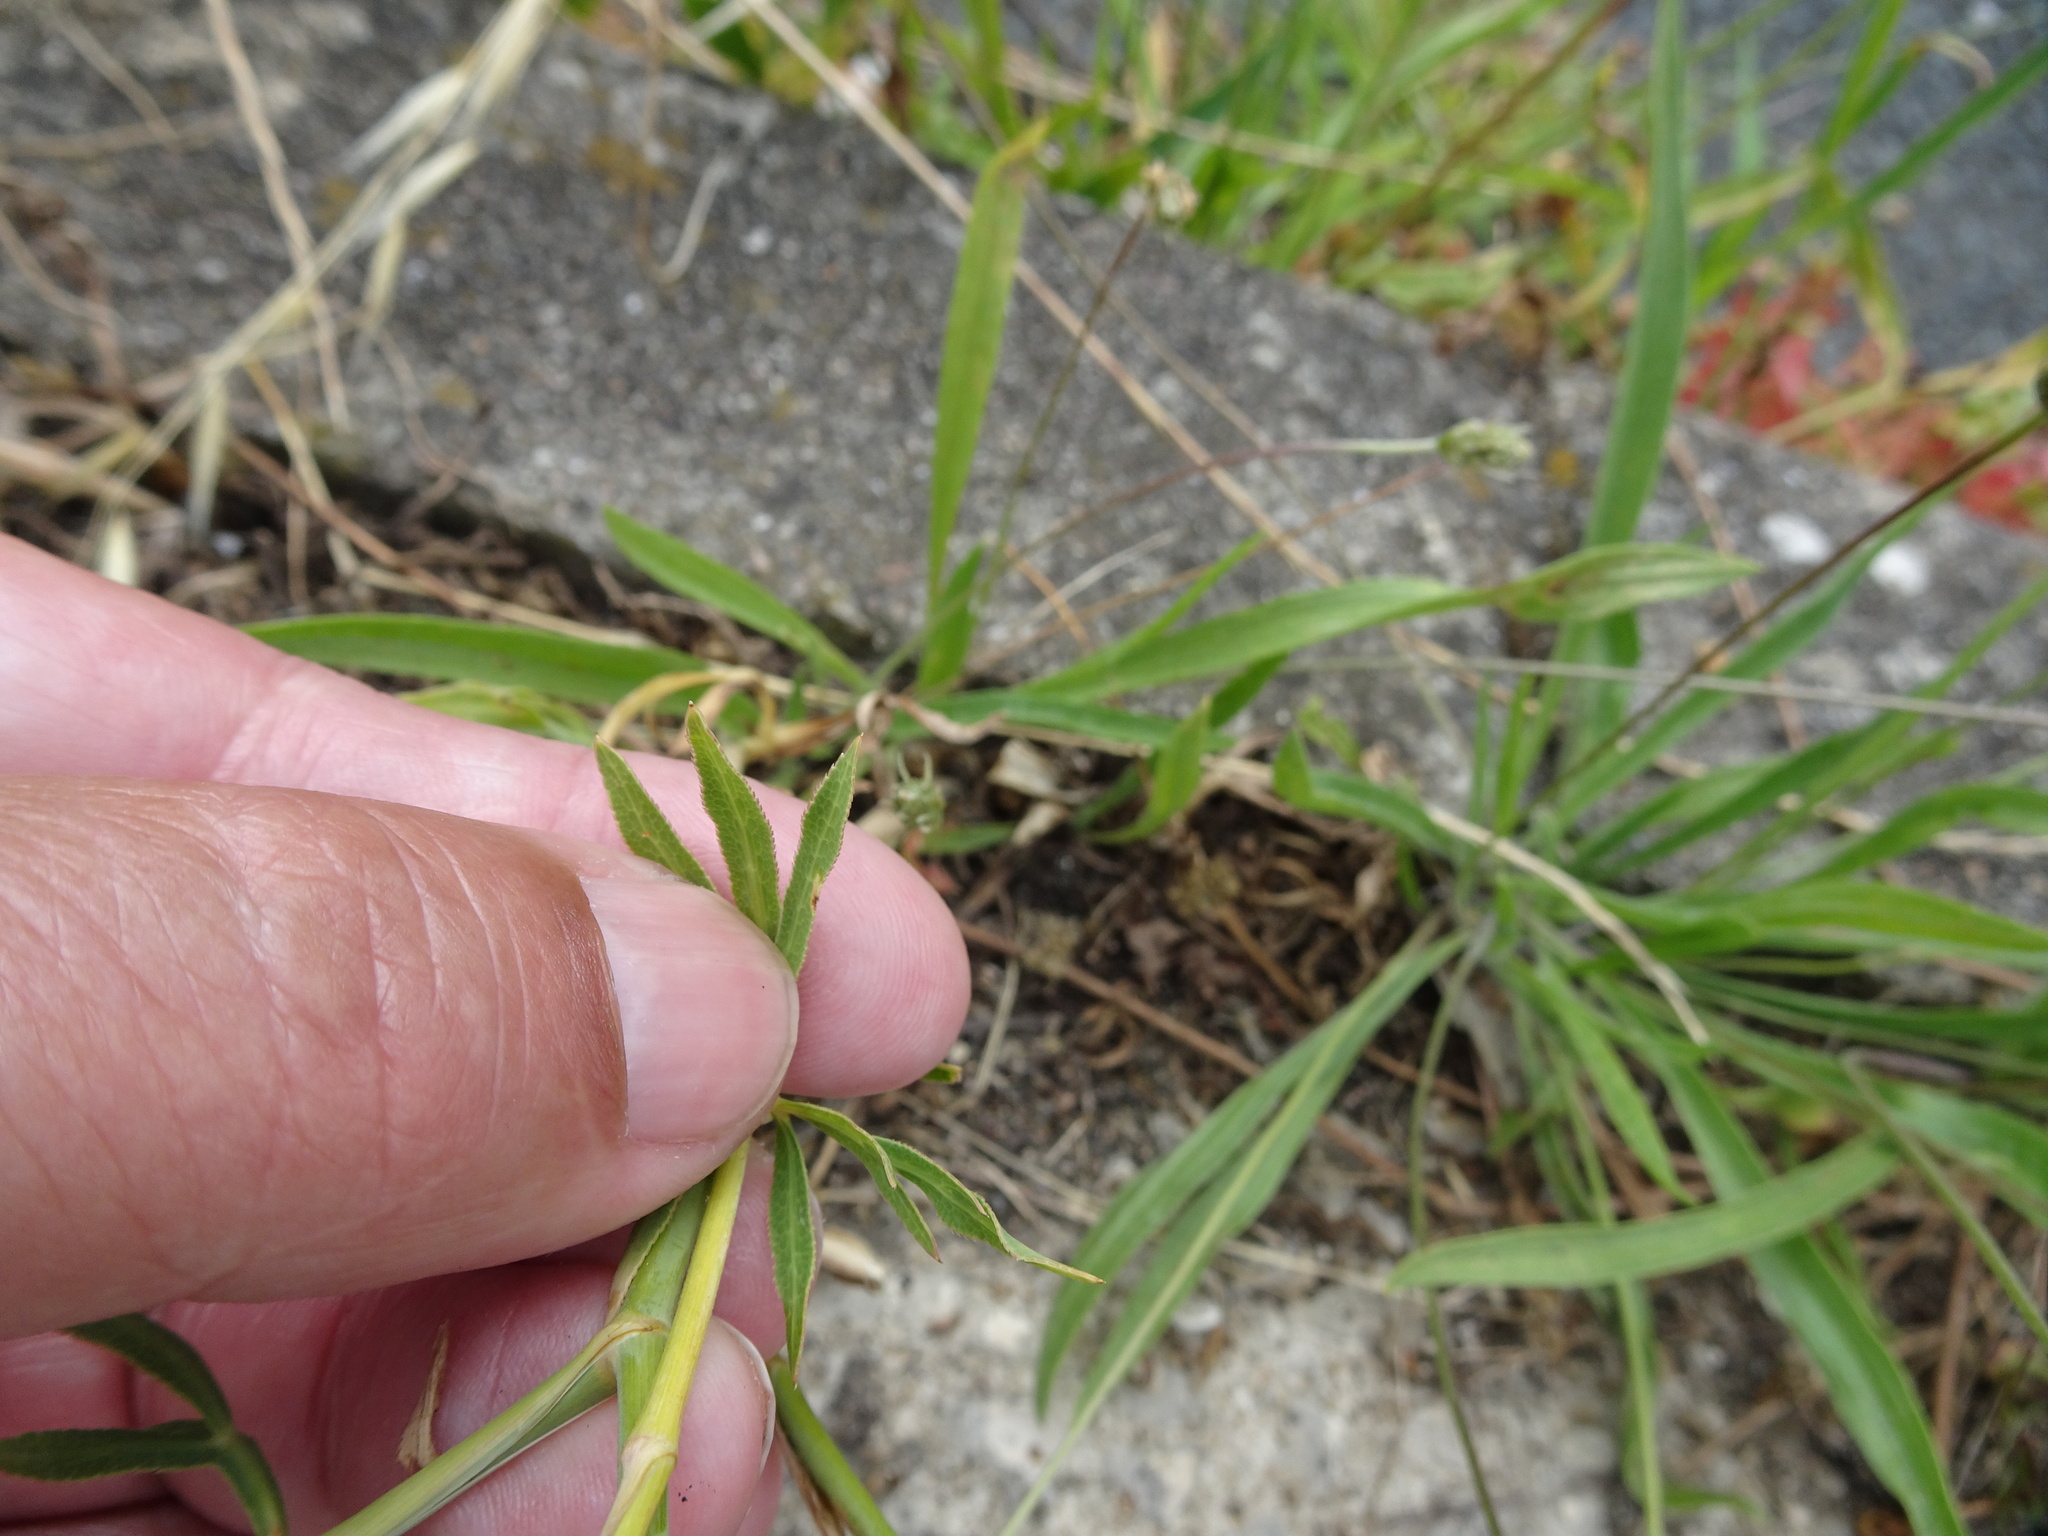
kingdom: Plantae
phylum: Tracheophyta
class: Magnoliopsida
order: Apiales
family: Apiaceae
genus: Falcaria
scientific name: Falcaria vulgaris
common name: Longleaf
